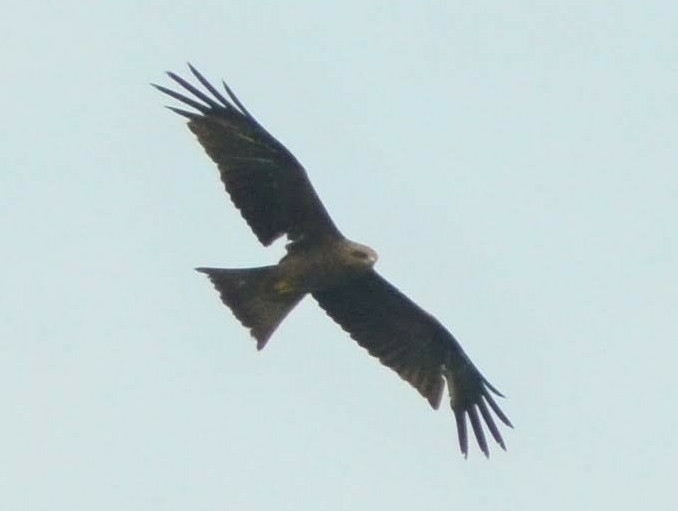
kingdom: Animalia
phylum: Chordata
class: Aves
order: Accipitriformes
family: Accipitridae
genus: Milvus
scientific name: Milvus migrans
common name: Black kite
